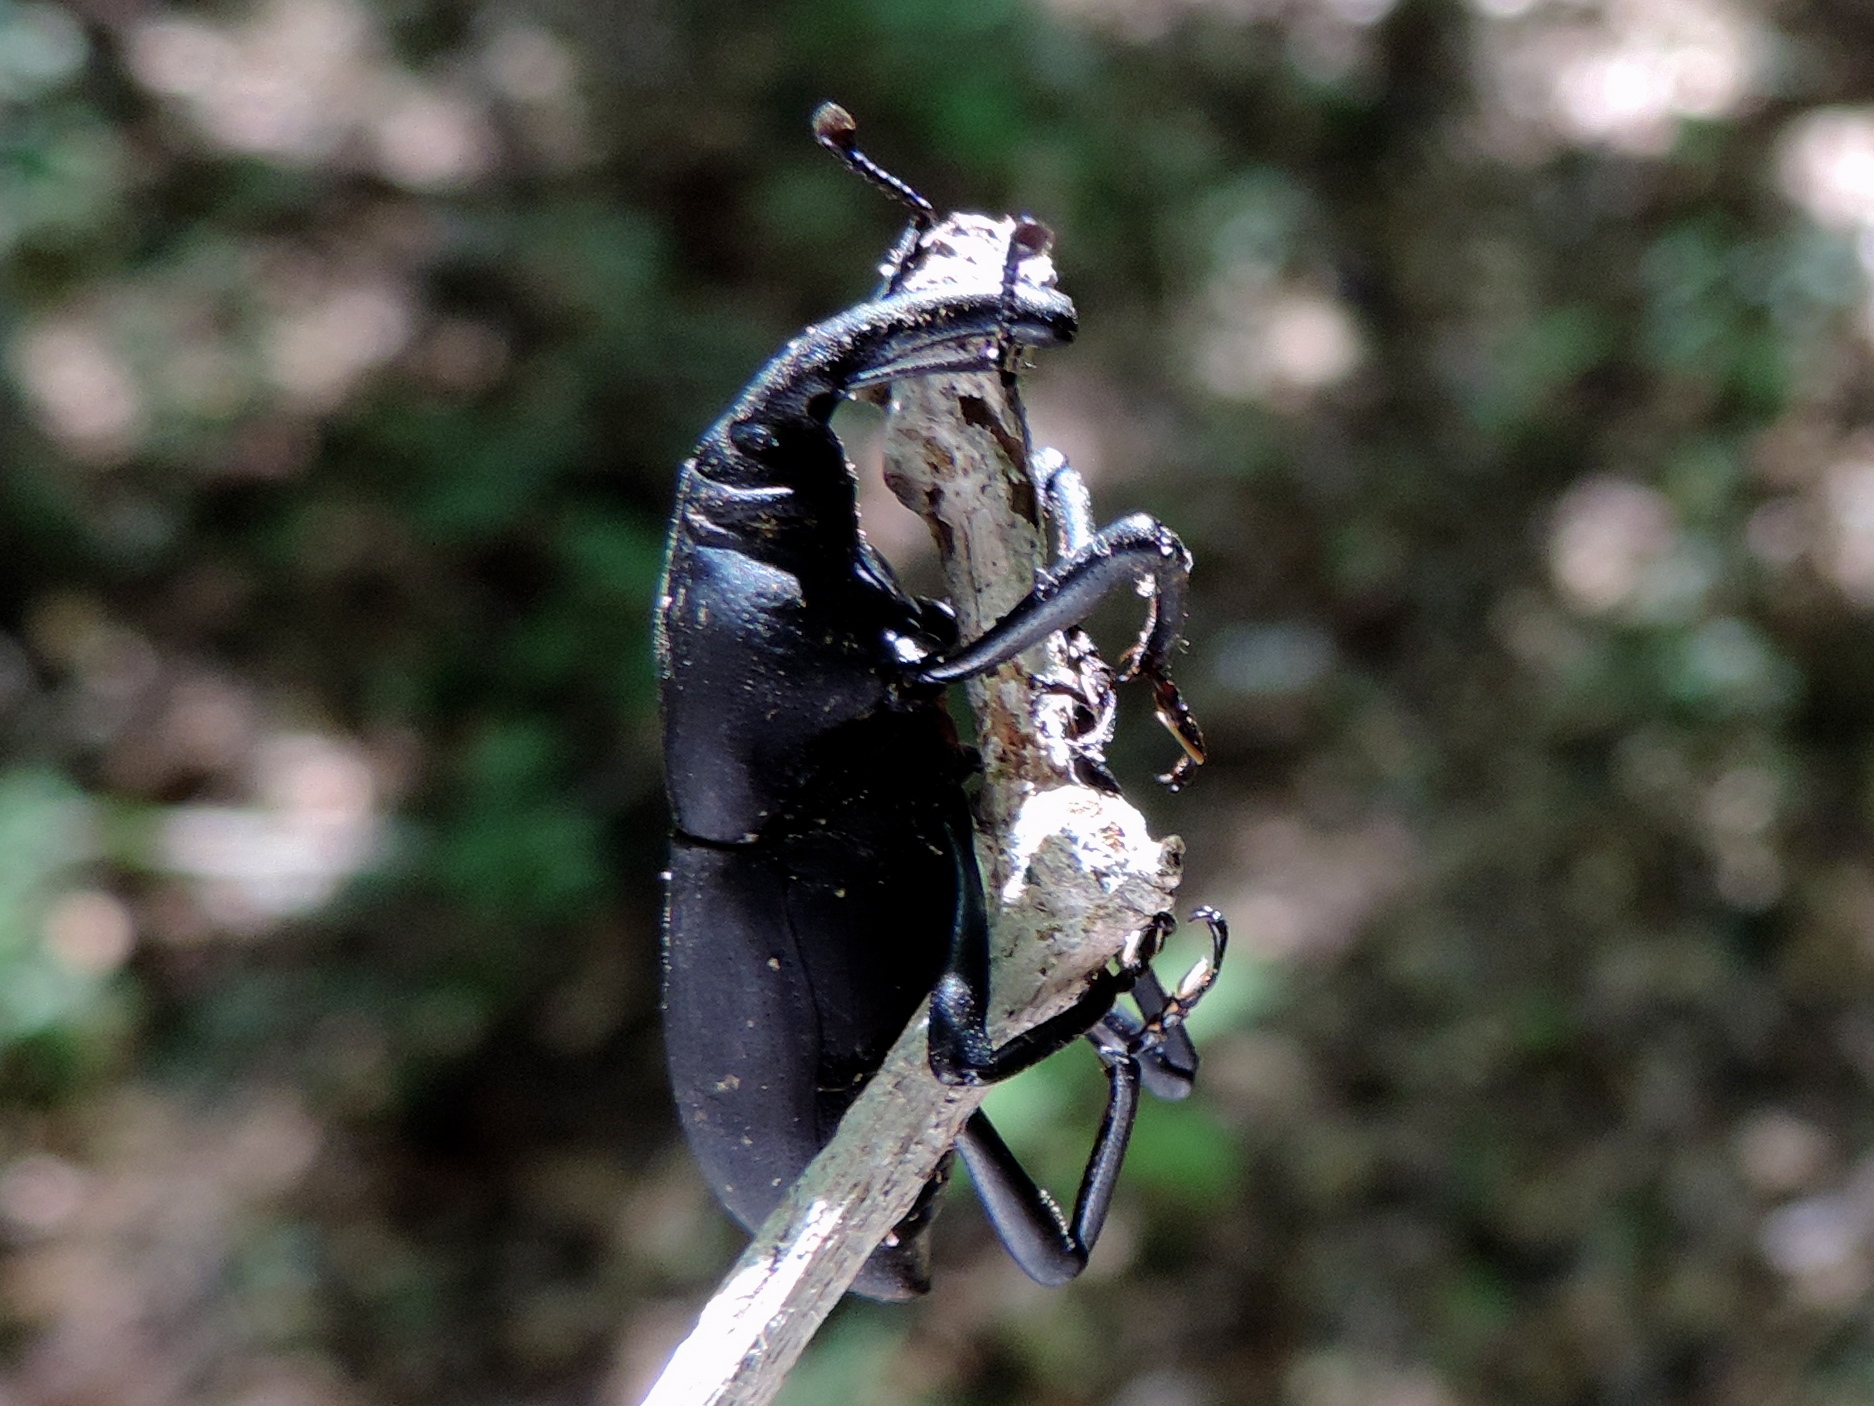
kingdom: Animalia
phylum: Arthropoda
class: Insecta
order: Coleoptera
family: Dryophthoridae
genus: Cactophagus
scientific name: Cactophagus spinolae
